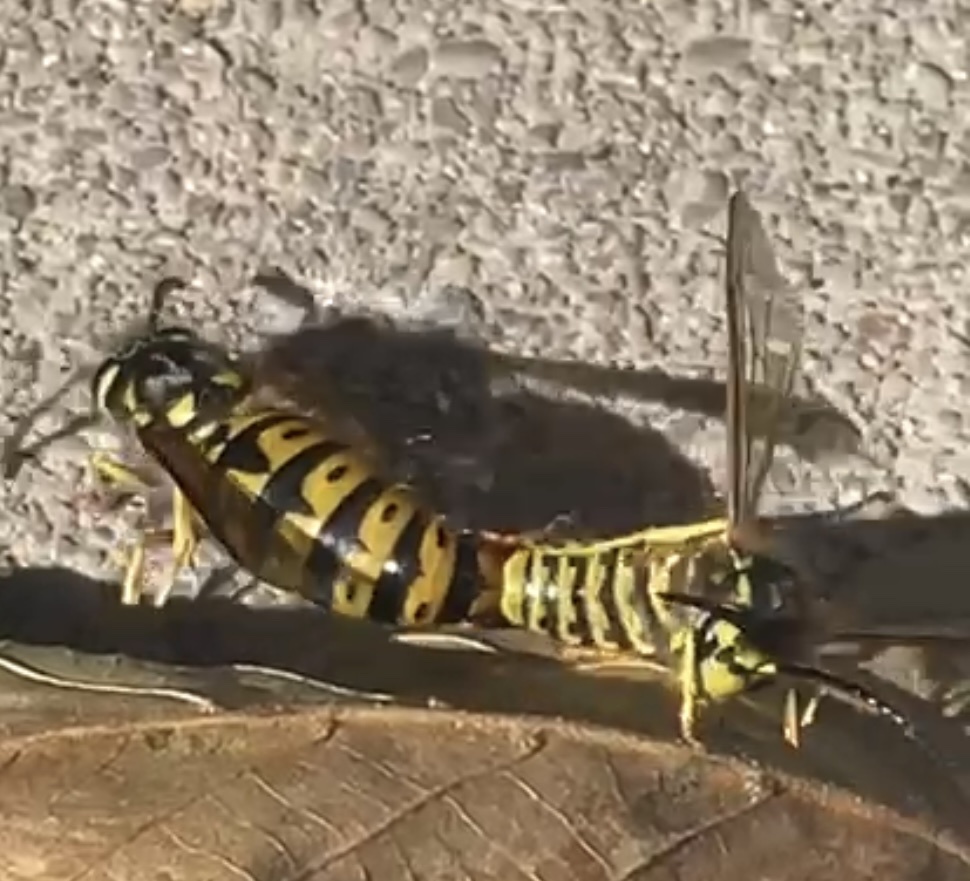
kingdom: Animalia
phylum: Arthropoda
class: Insecta
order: Hymenoptera
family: Vespidae
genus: Vespula
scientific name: Vespula germanica
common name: German wasp
